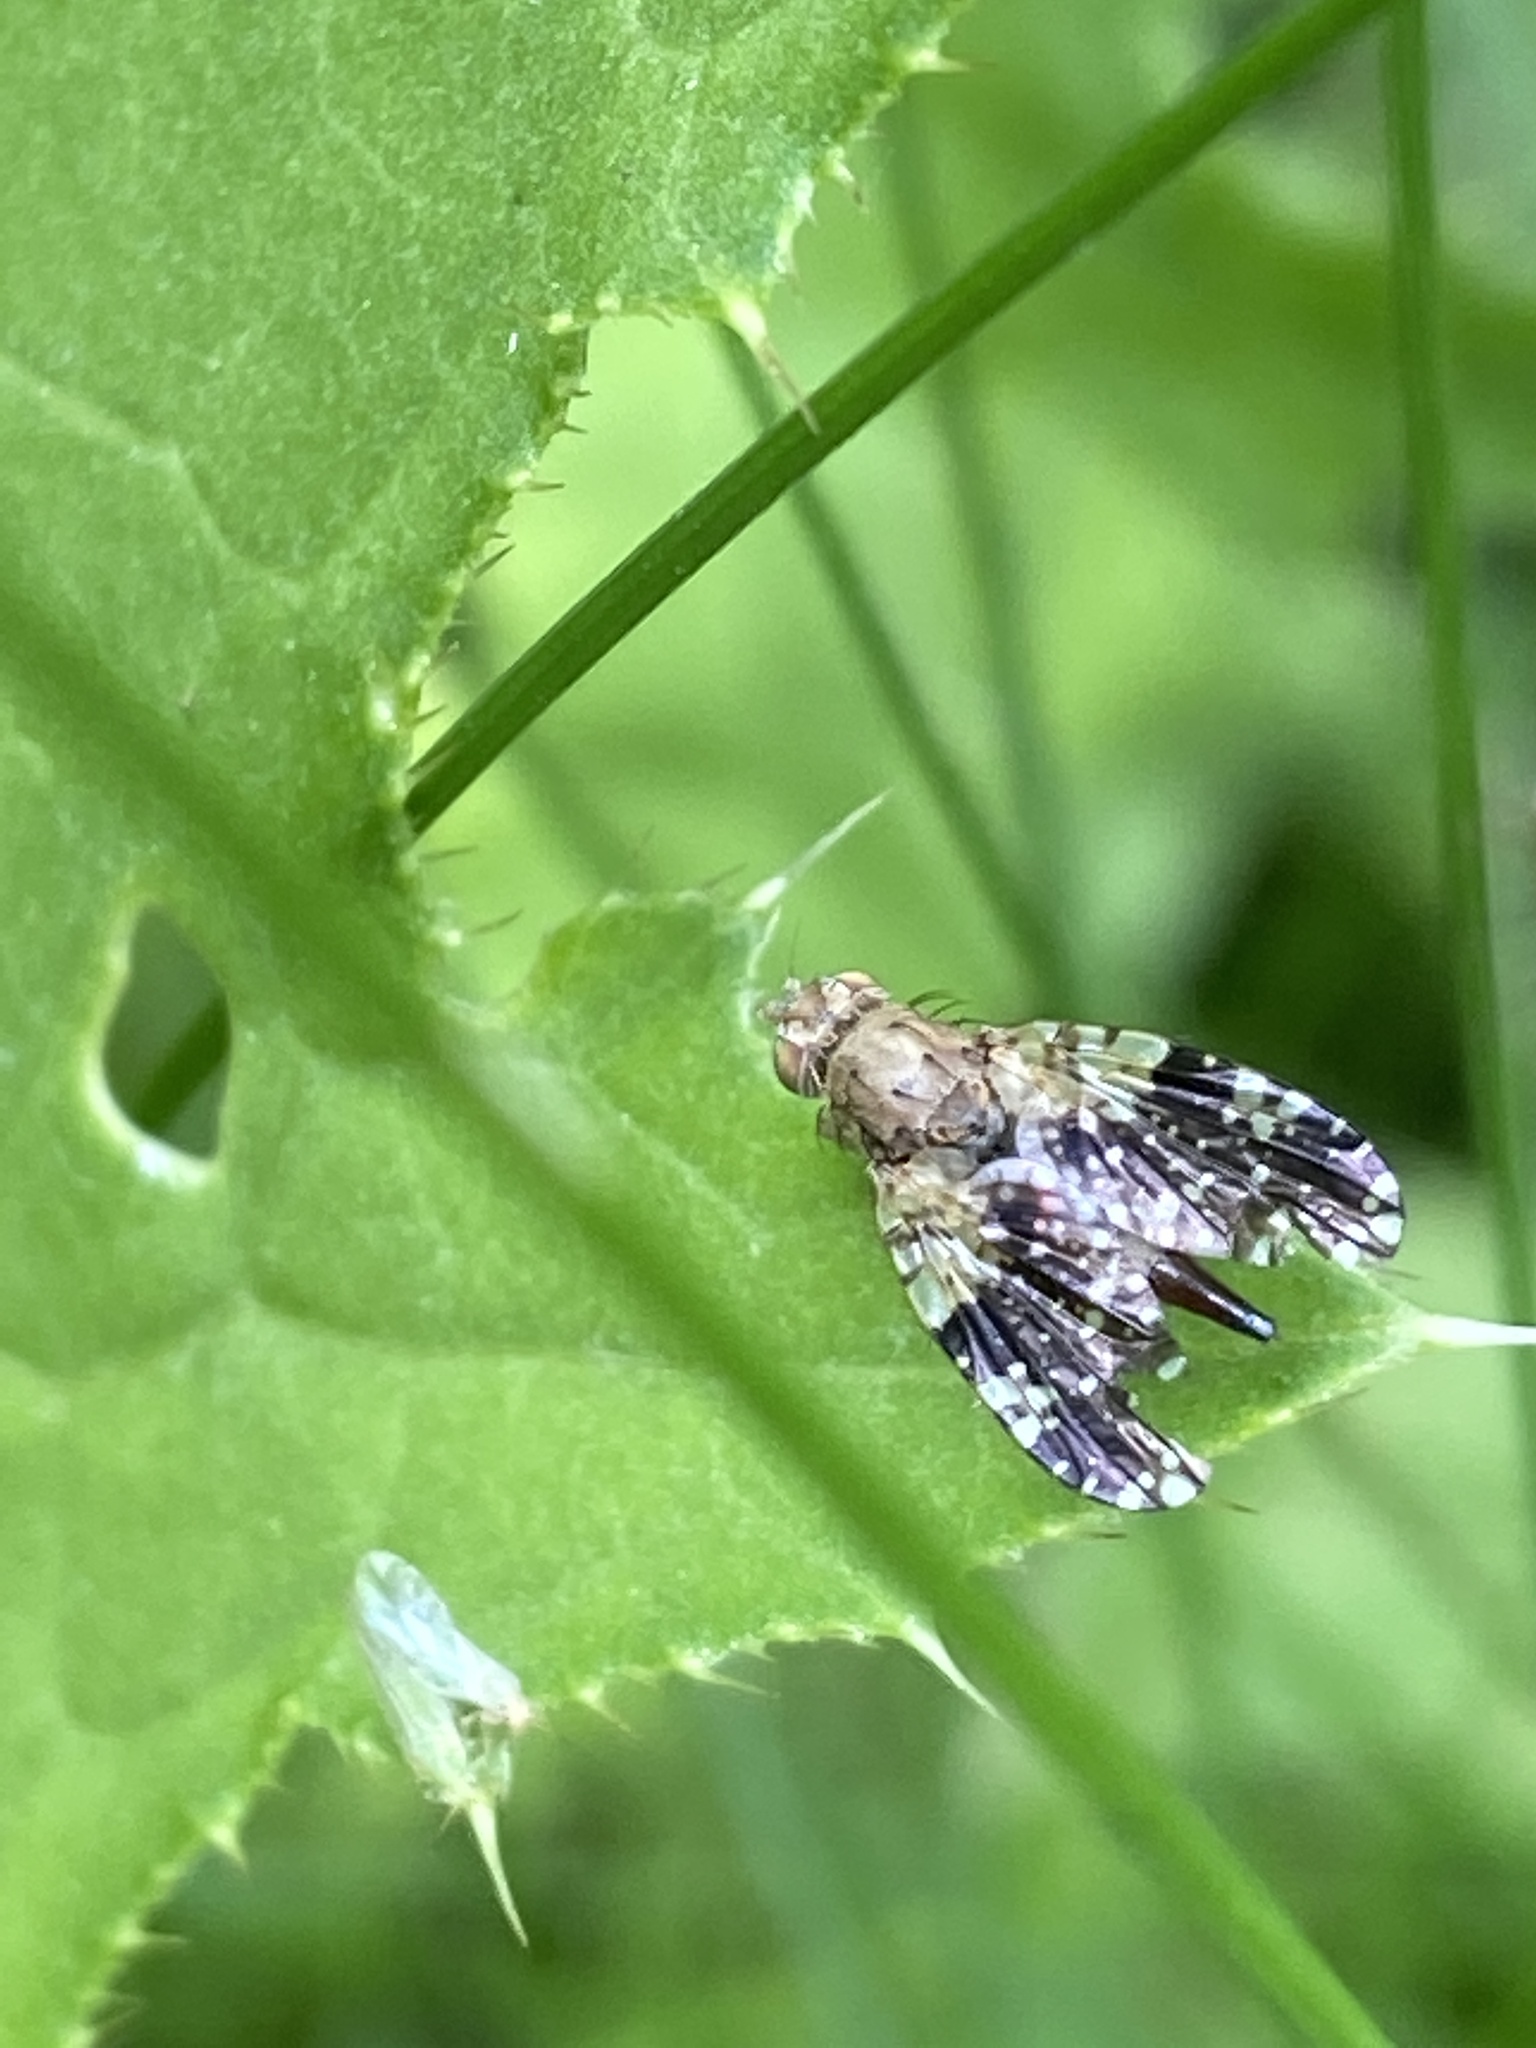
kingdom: Animalia
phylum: Arthropoda
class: Insecta
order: Diptera
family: Tephritidae
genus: Tephritis
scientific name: Tephritis conura
